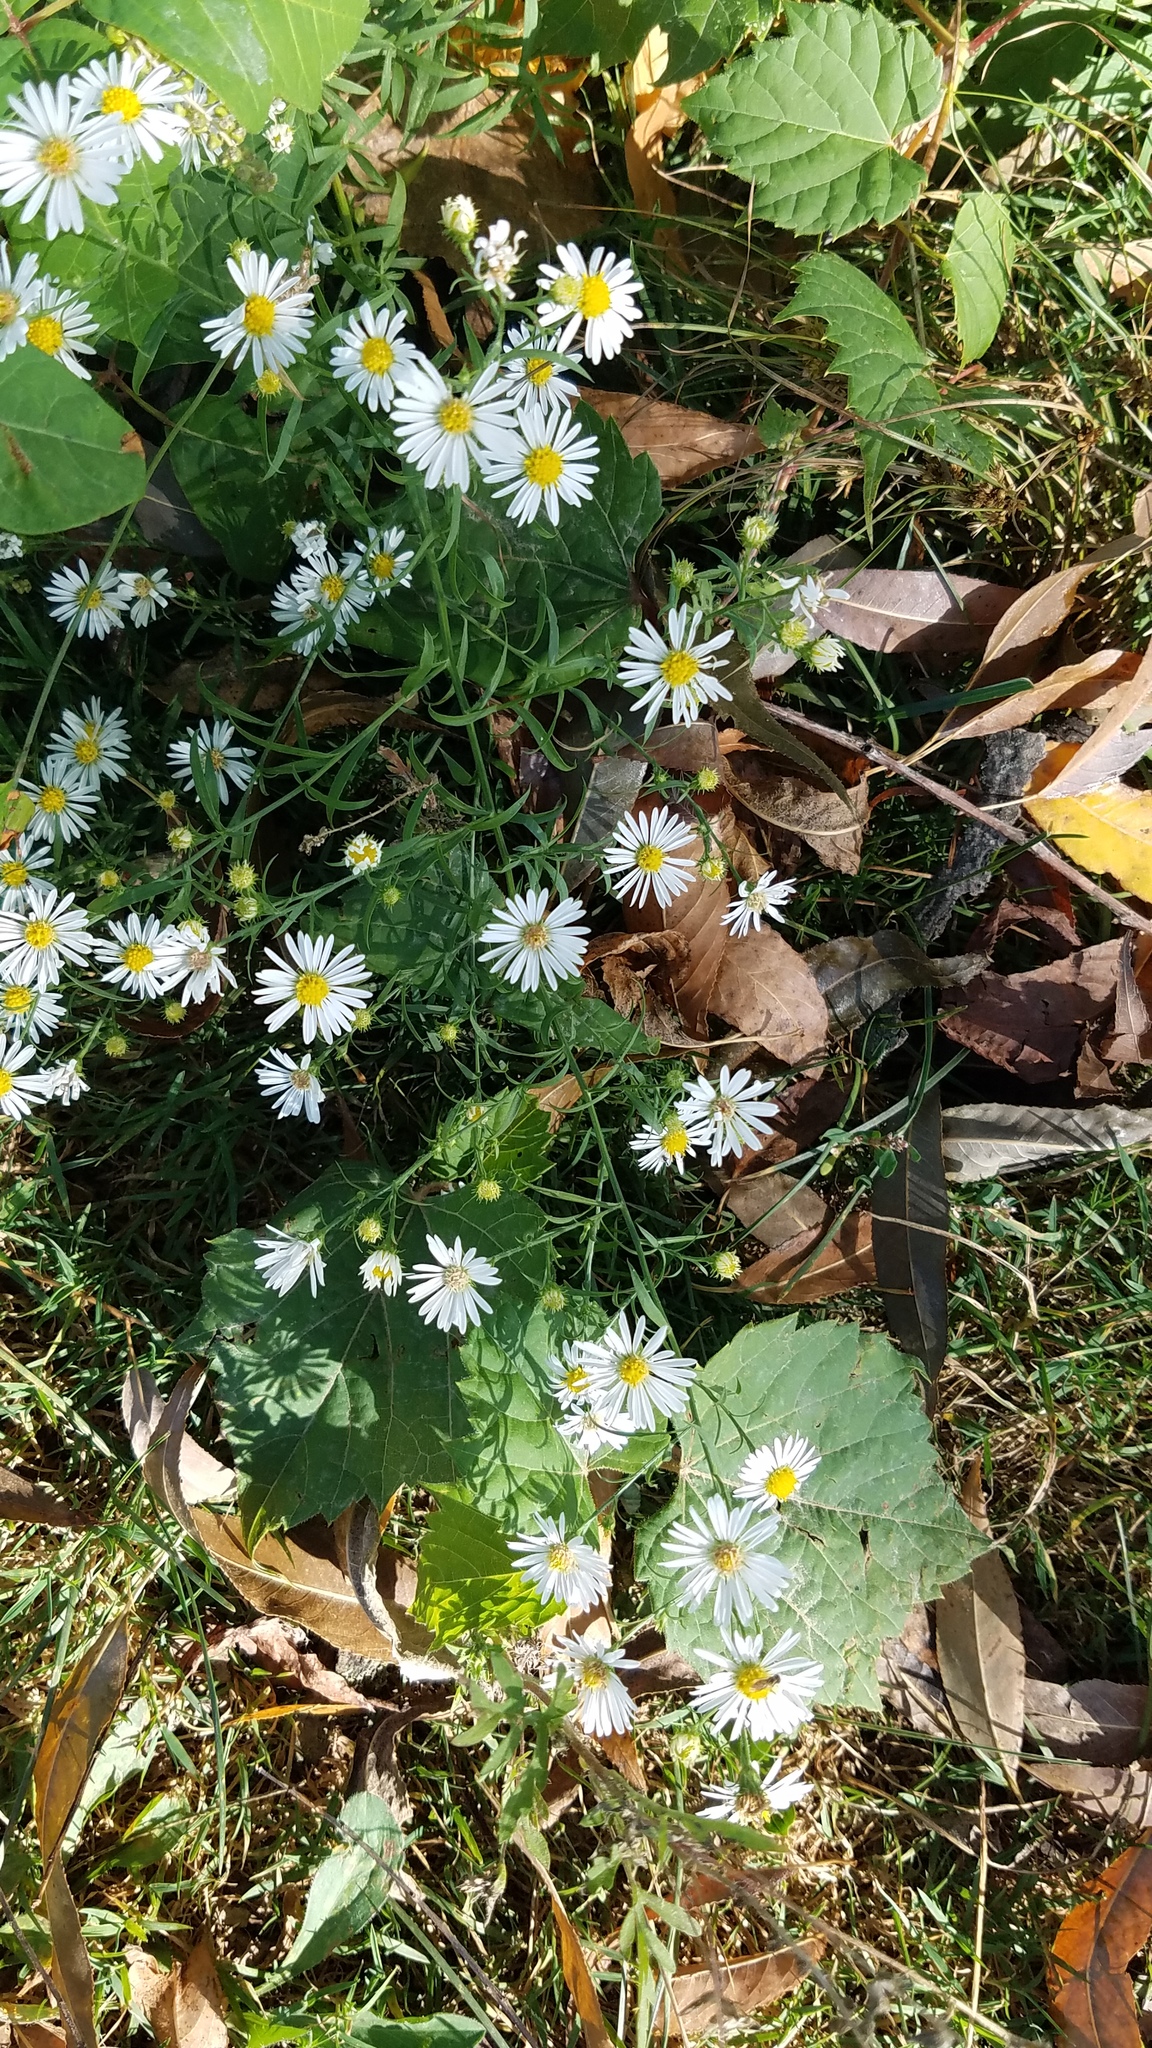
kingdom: Plantae
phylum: Tracheophyta
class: Magnoliopsida
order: Asterales
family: Asteraceae
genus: Symphyotrichum
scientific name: Symphyotrichum pilosum
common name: Awl aster
